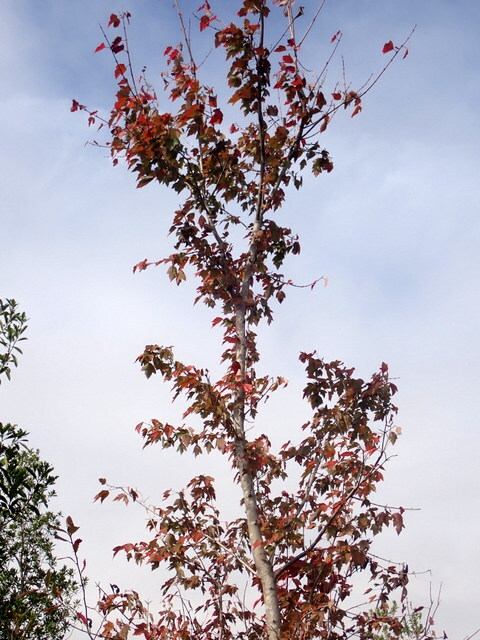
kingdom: Plantae
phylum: Tracheophyta
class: Magnoliopsida
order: Sapindales
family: Sapindaceae
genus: Acer
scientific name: Acer rubrum
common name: Red maple
